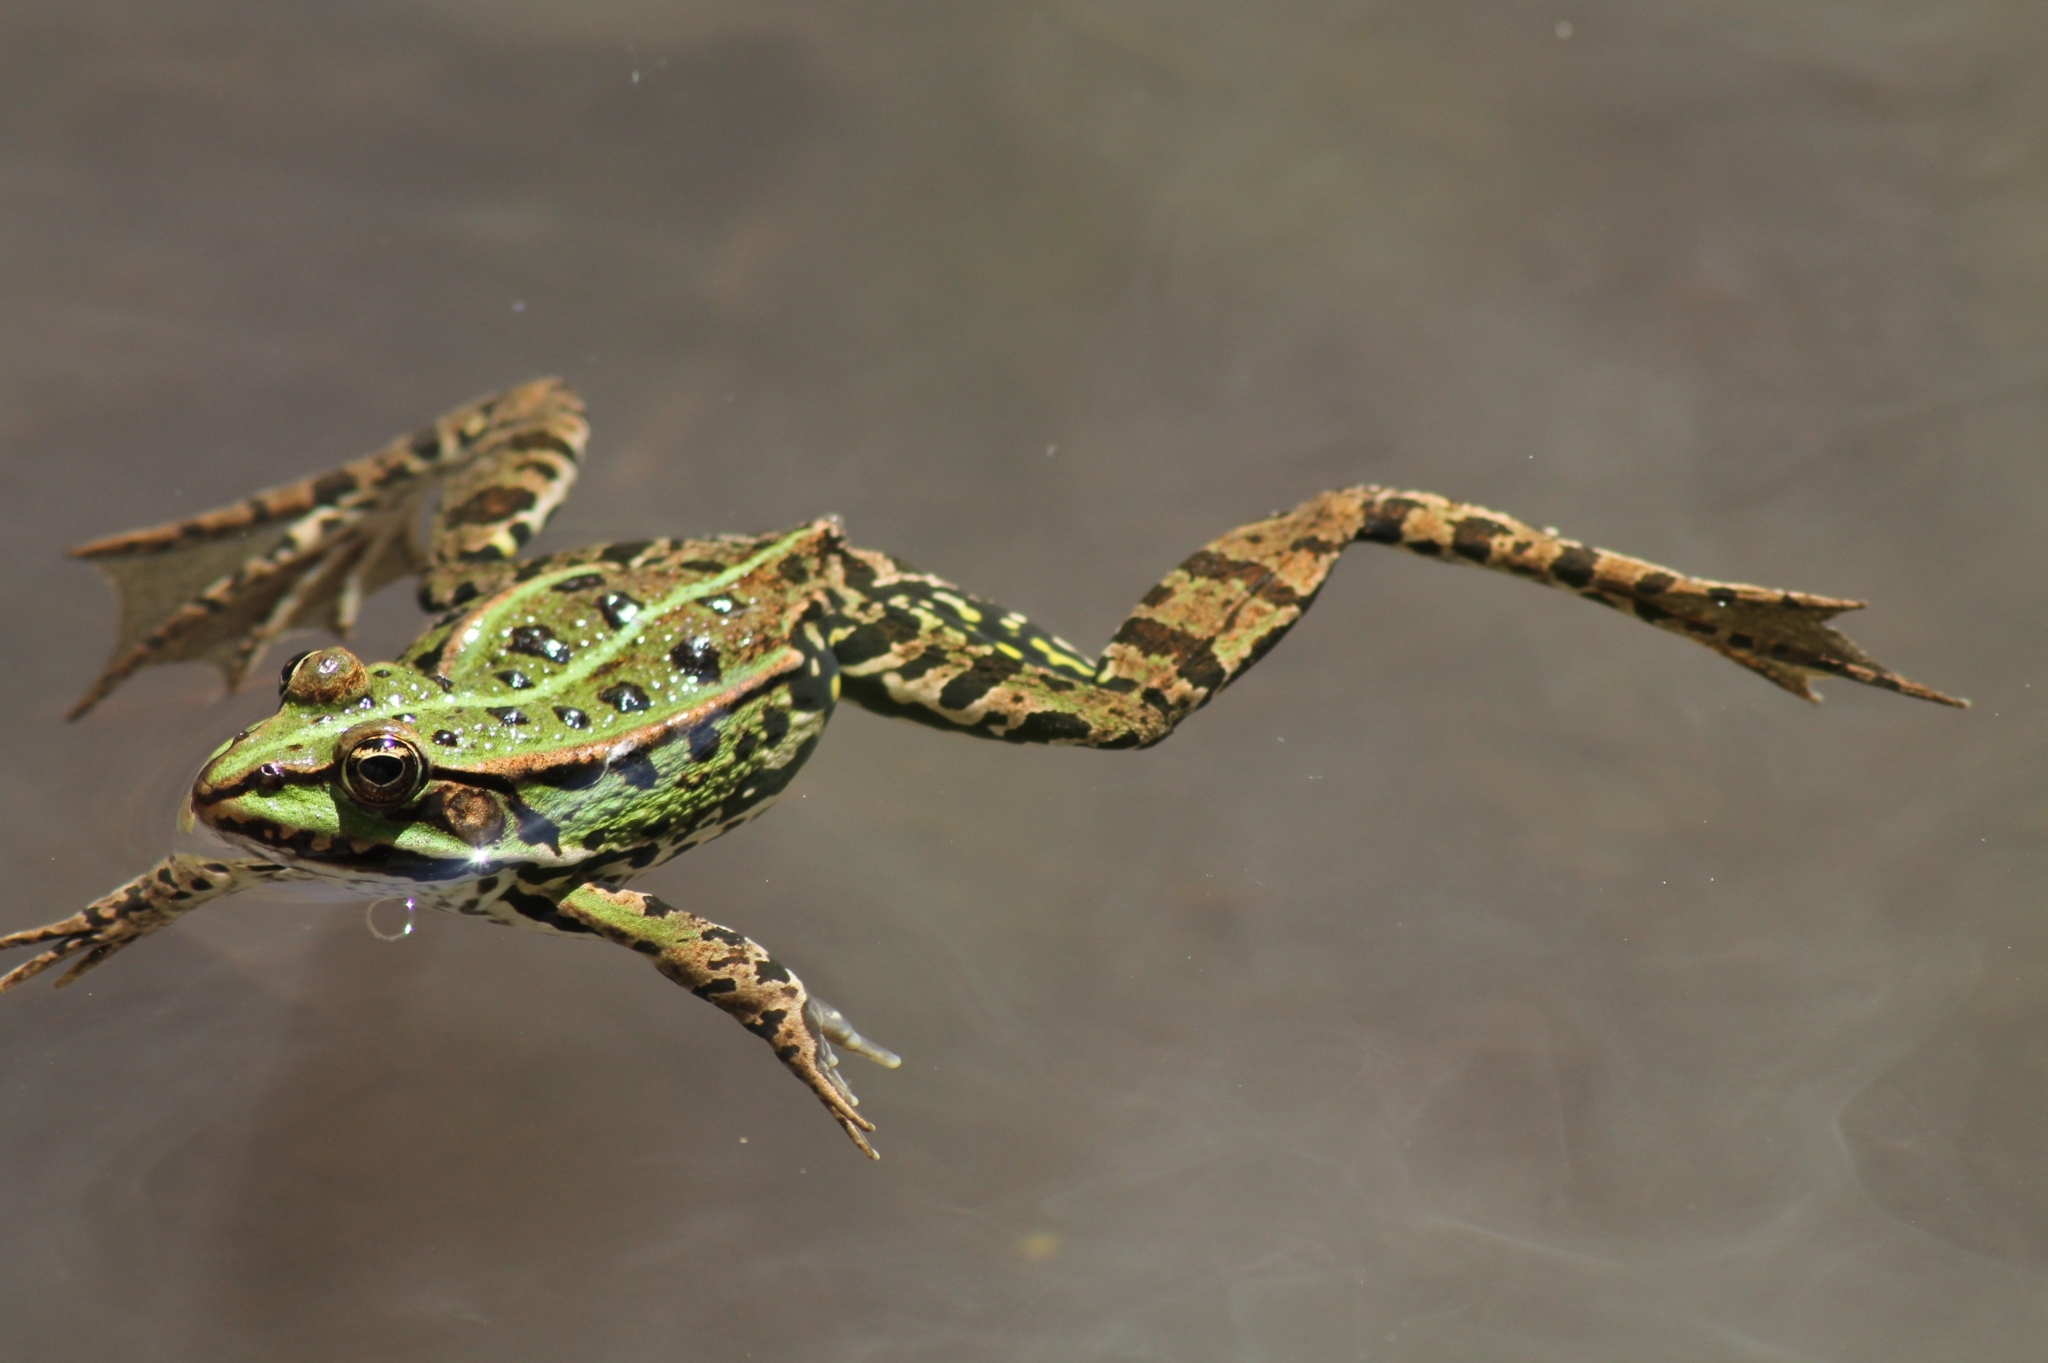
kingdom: Animalia
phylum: Chordata
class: Amphibia
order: Anura
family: Ranidae
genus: Pelophylax
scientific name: Pelophylax
